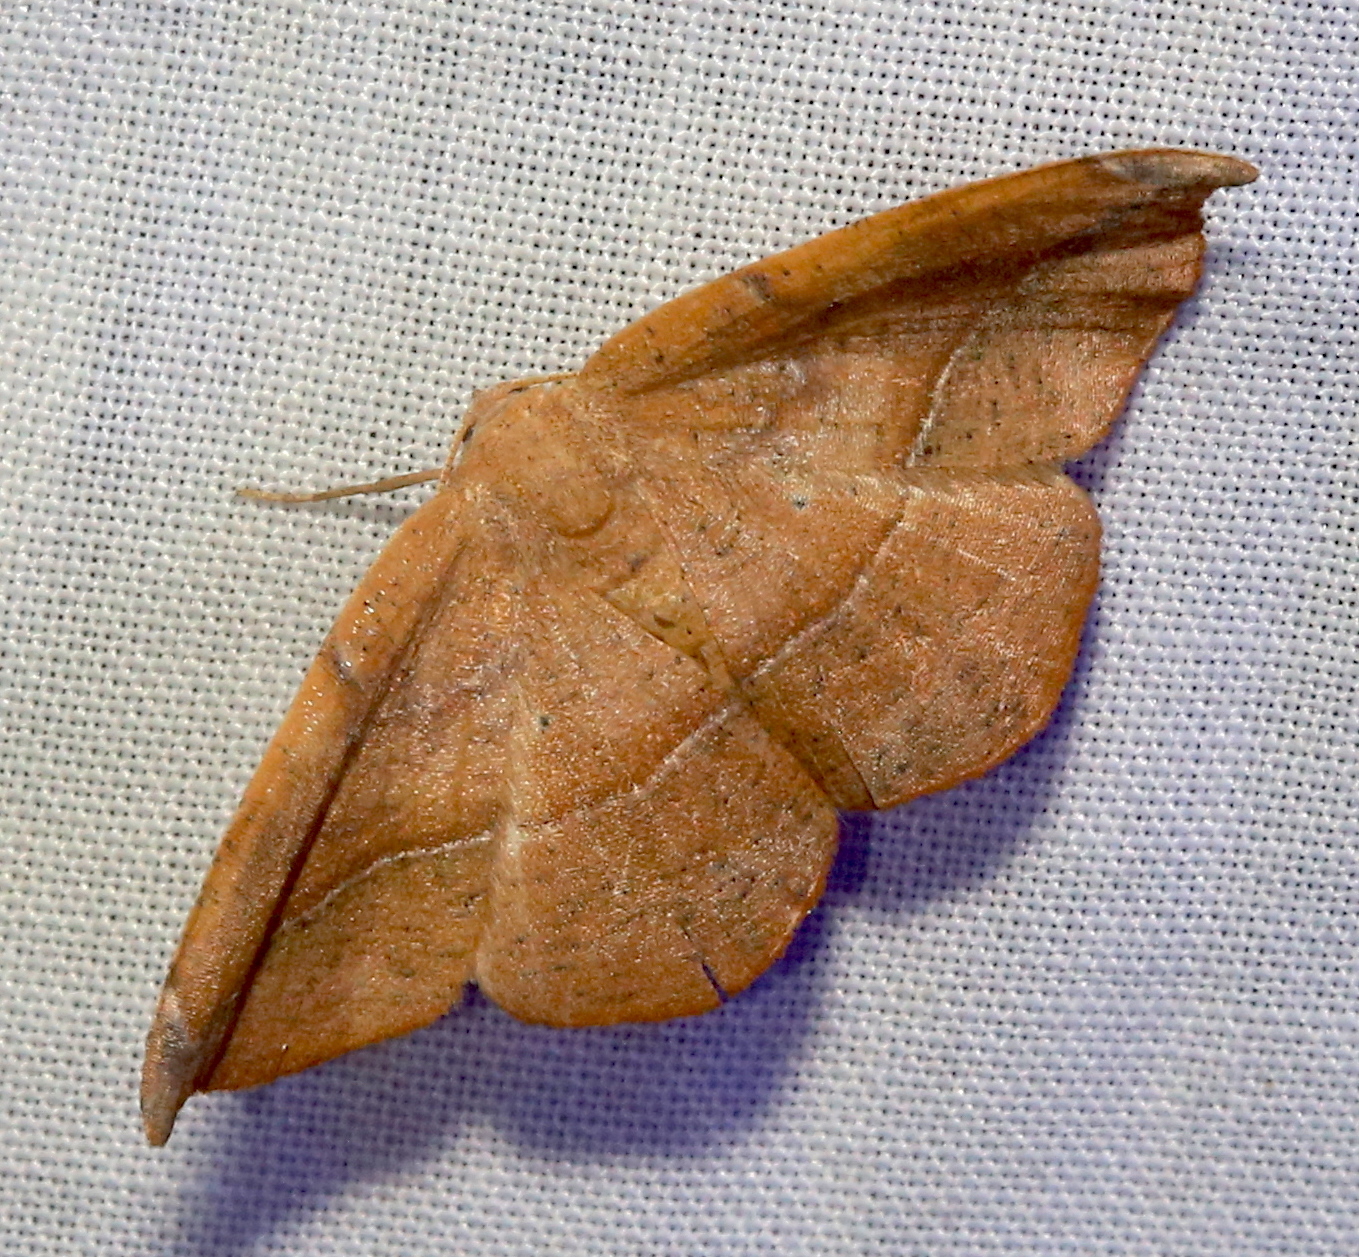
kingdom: Animalia
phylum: Arthropoda
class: Insecta
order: Lepidoptera
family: Geometridae
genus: Patalene
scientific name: Patalene olyzonaria
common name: Juniper geometer moth
